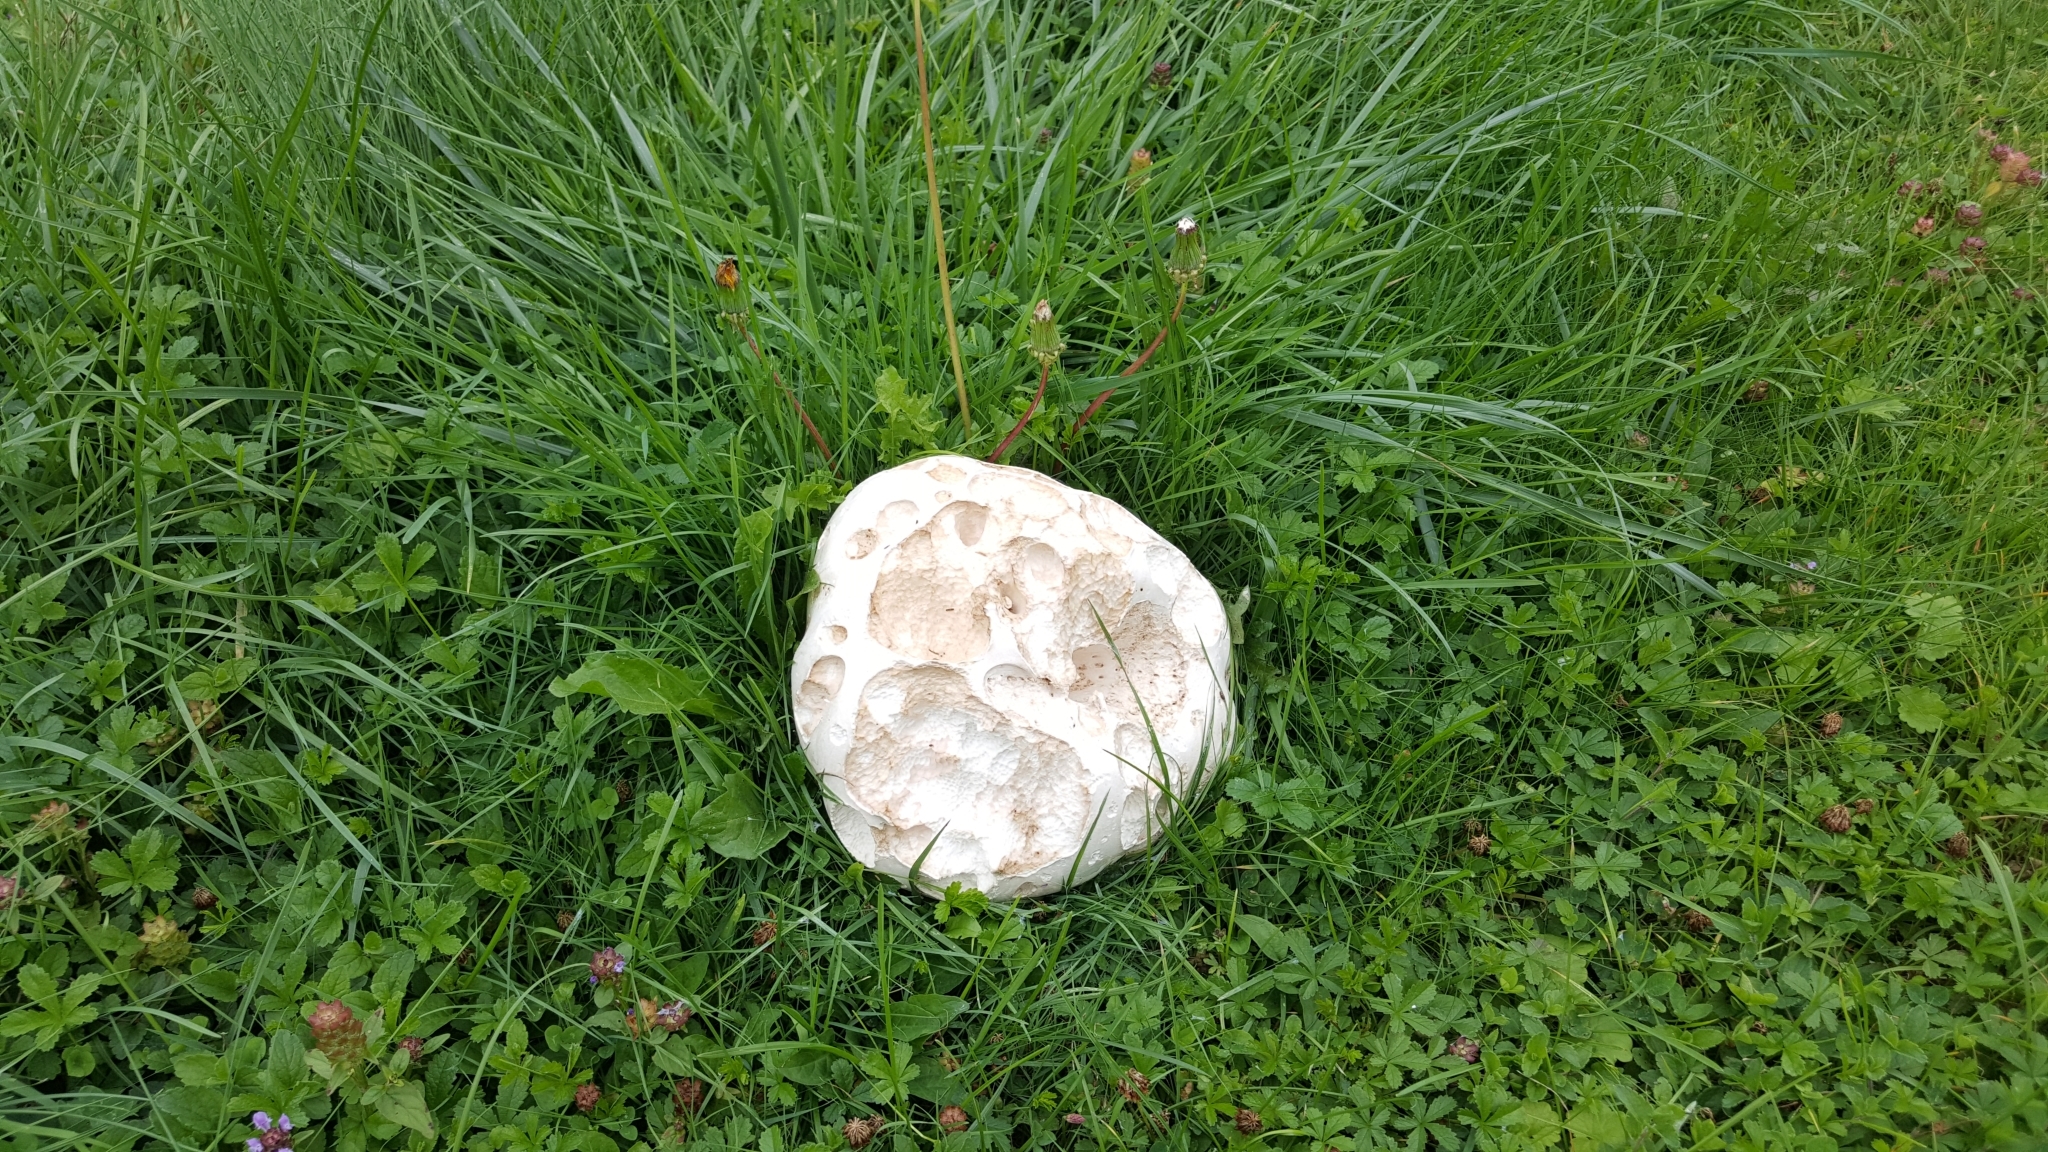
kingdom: Fungi
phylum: Basidiomycota
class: Agaricomycetes
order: Agaricales
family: Lycoperdaceae
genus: Calvatia
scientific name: Calvatia gigantea
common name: Giant puffball
